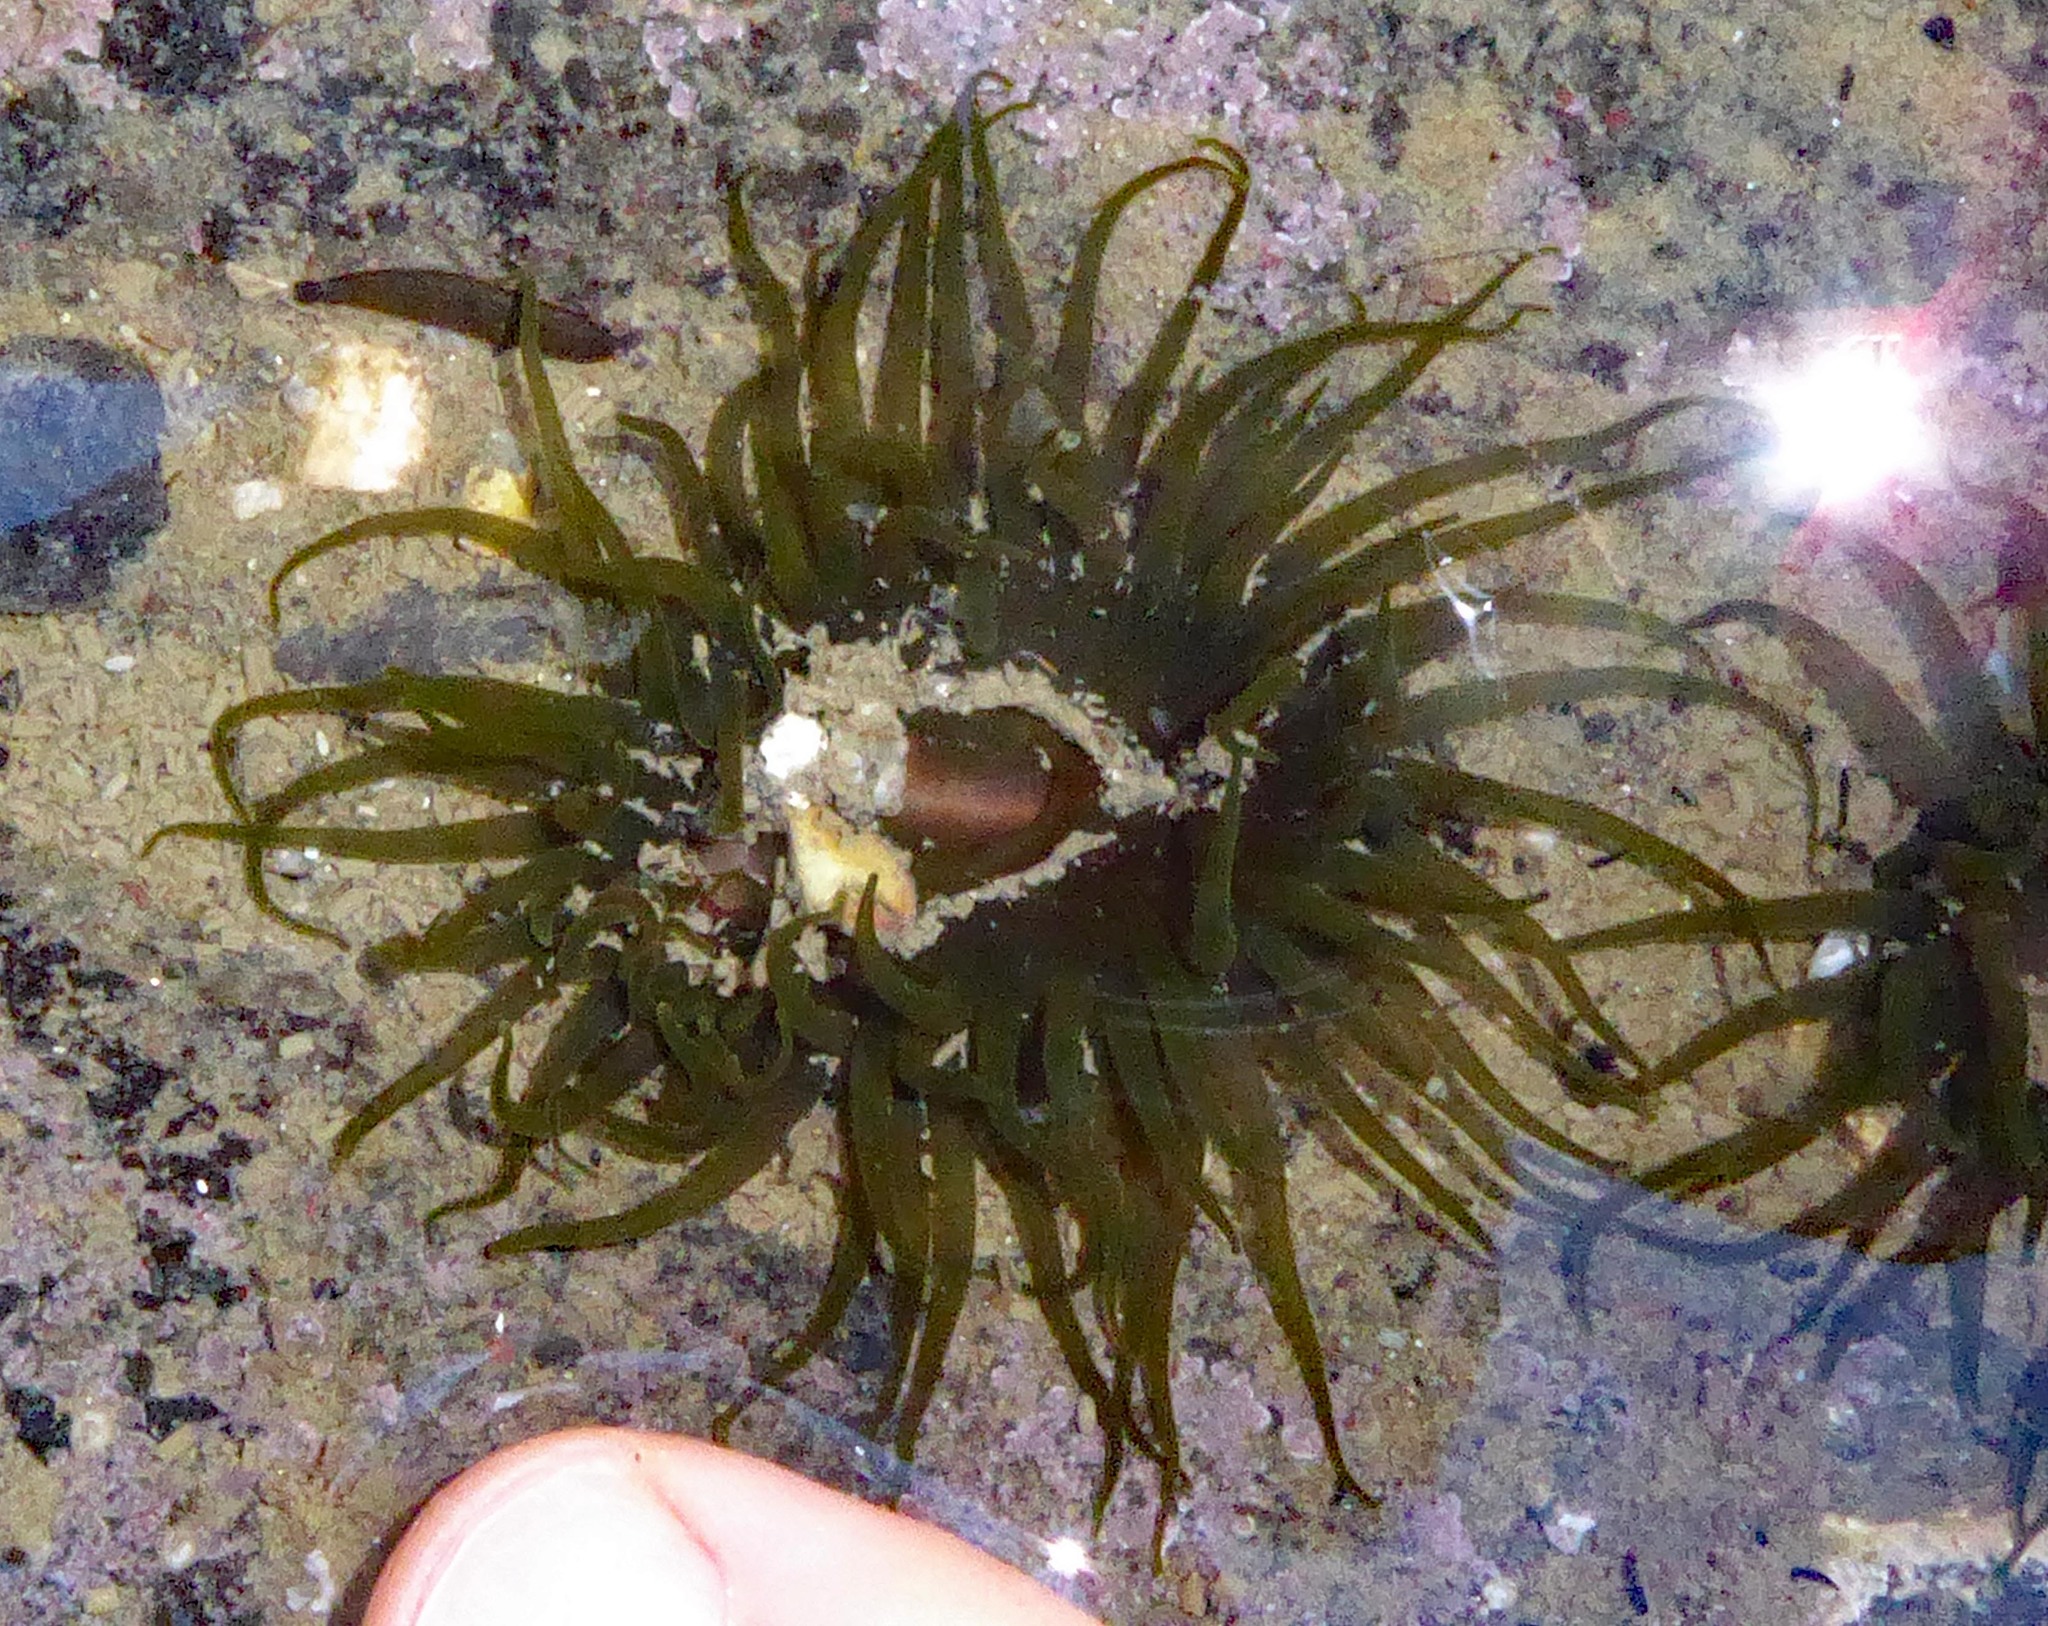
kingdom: Animalia
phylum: Cnidaria
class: Anthozoa
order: Actiniaria
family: Actiniidae
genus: Isactinia
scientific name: Isactinia olivacea
